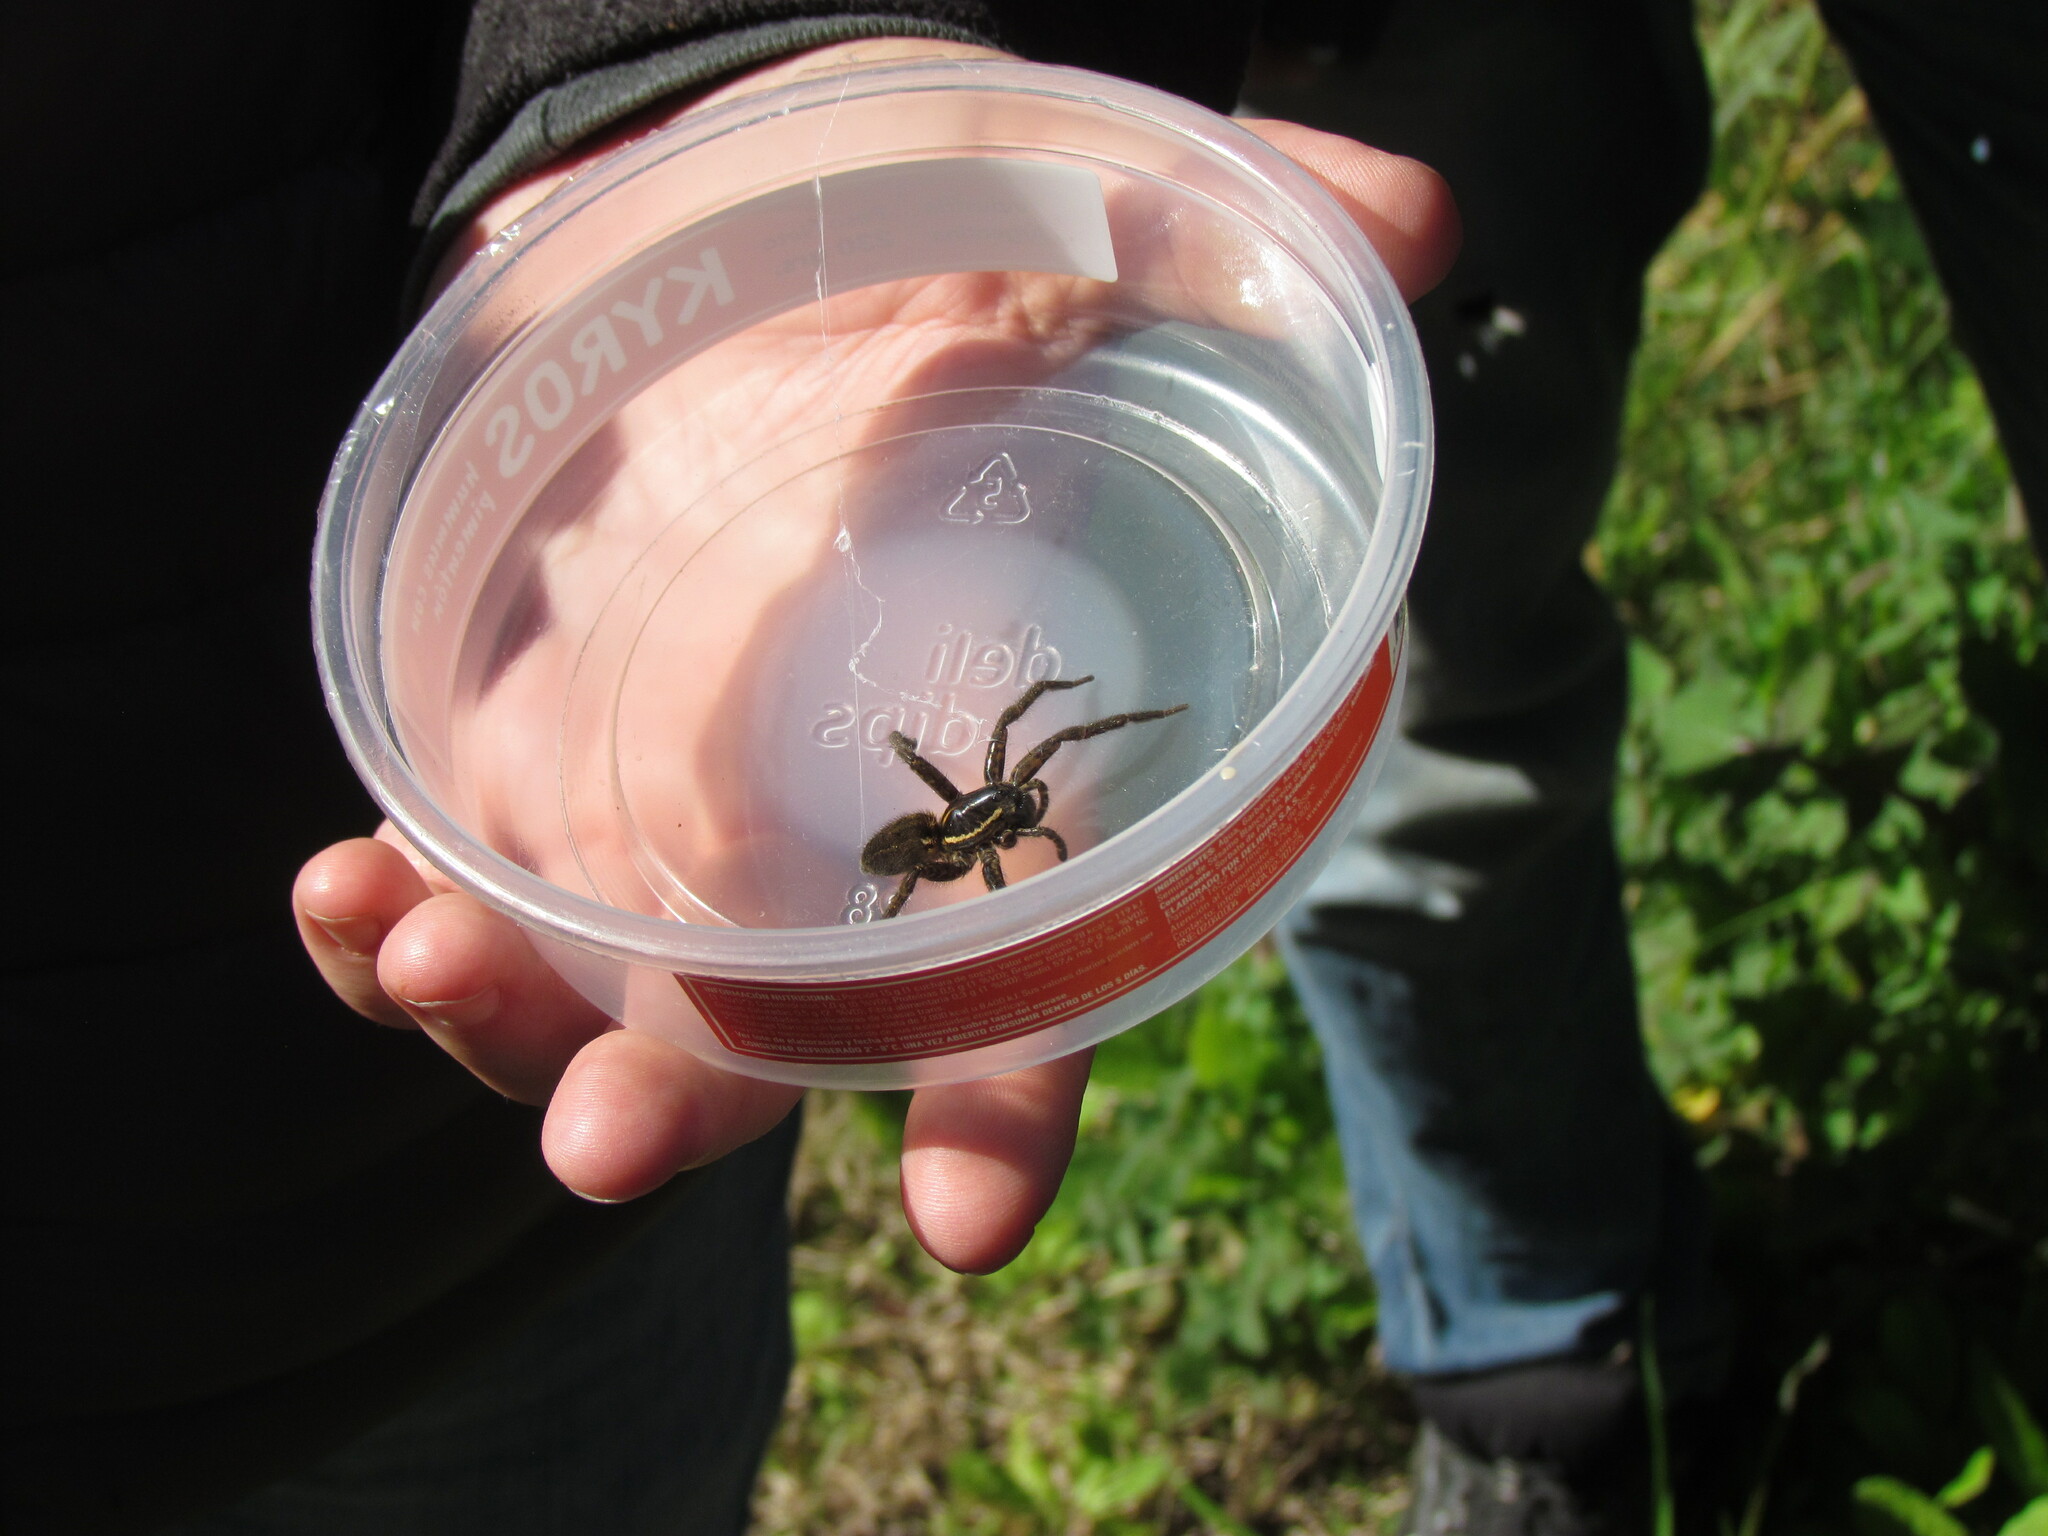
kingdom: Animalia
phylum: Arthropoda
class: Arachnida
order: Araneae
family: Lycosidae
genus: Aglaoctenus
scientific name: Aglaoctenus oblongus
